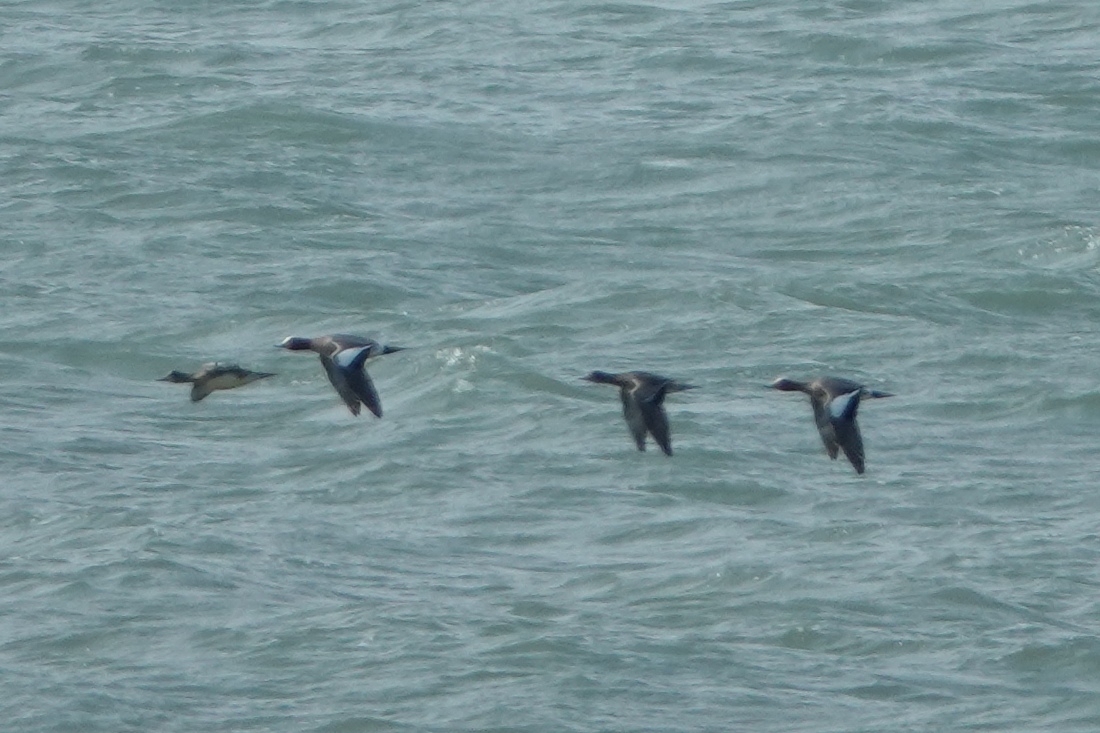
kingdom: Animalia
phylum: Chordata
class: Aves
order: Anseriformes
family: Anatidae
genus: Mareca
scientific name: Mareca penelope
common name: Eurasian wigeon
